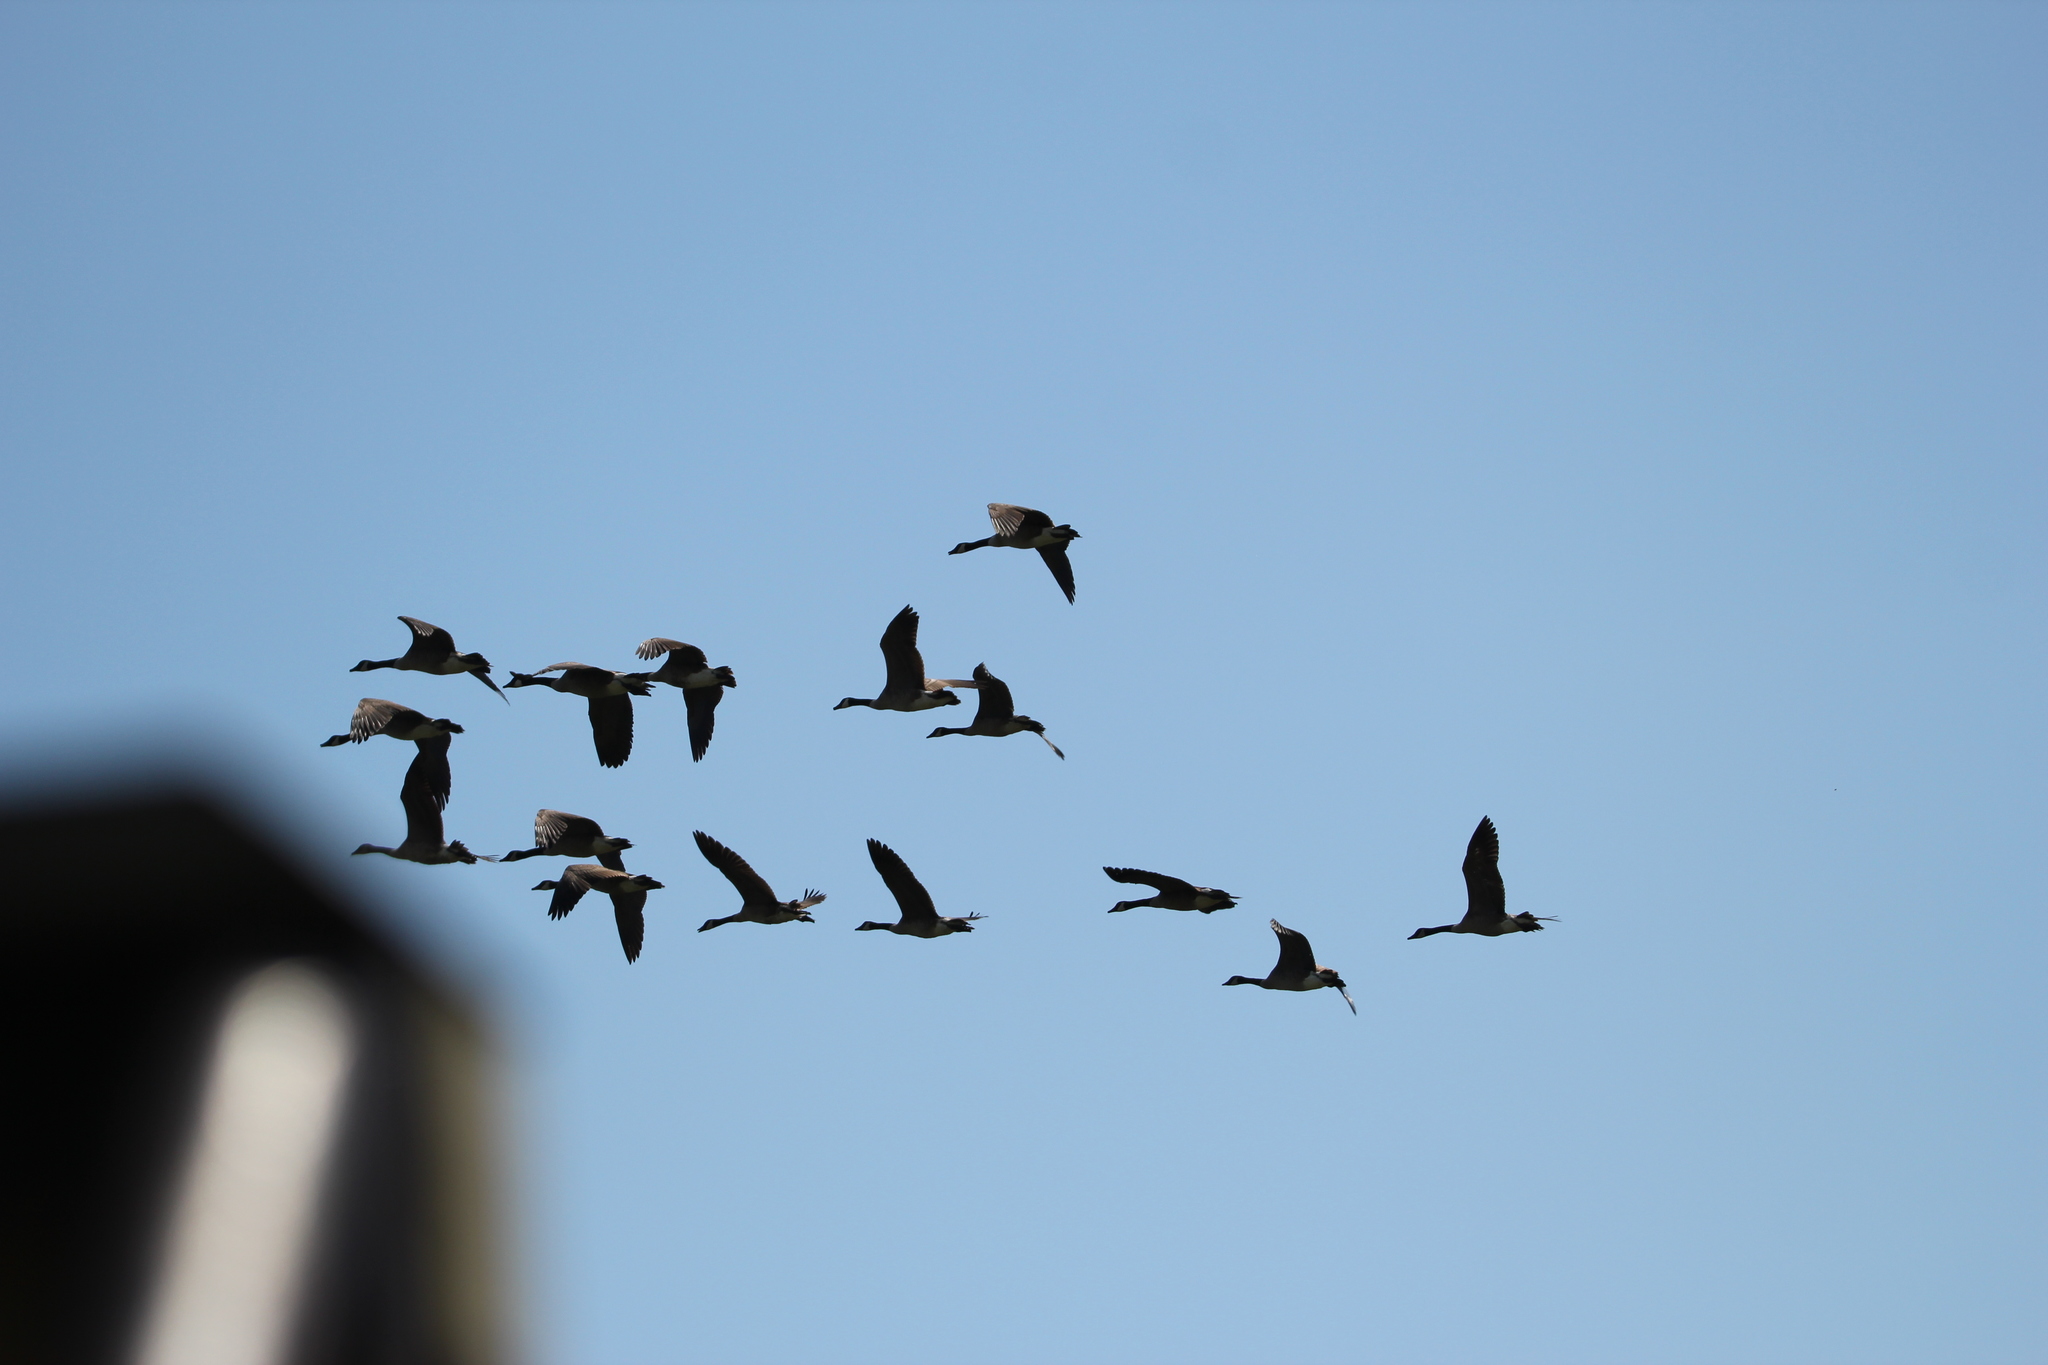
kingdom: Animalia
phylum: Chordata
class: Aves
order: Anseriformes
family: Anatidae
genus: Branta
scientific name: Branta canadensis
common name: Canada goose
